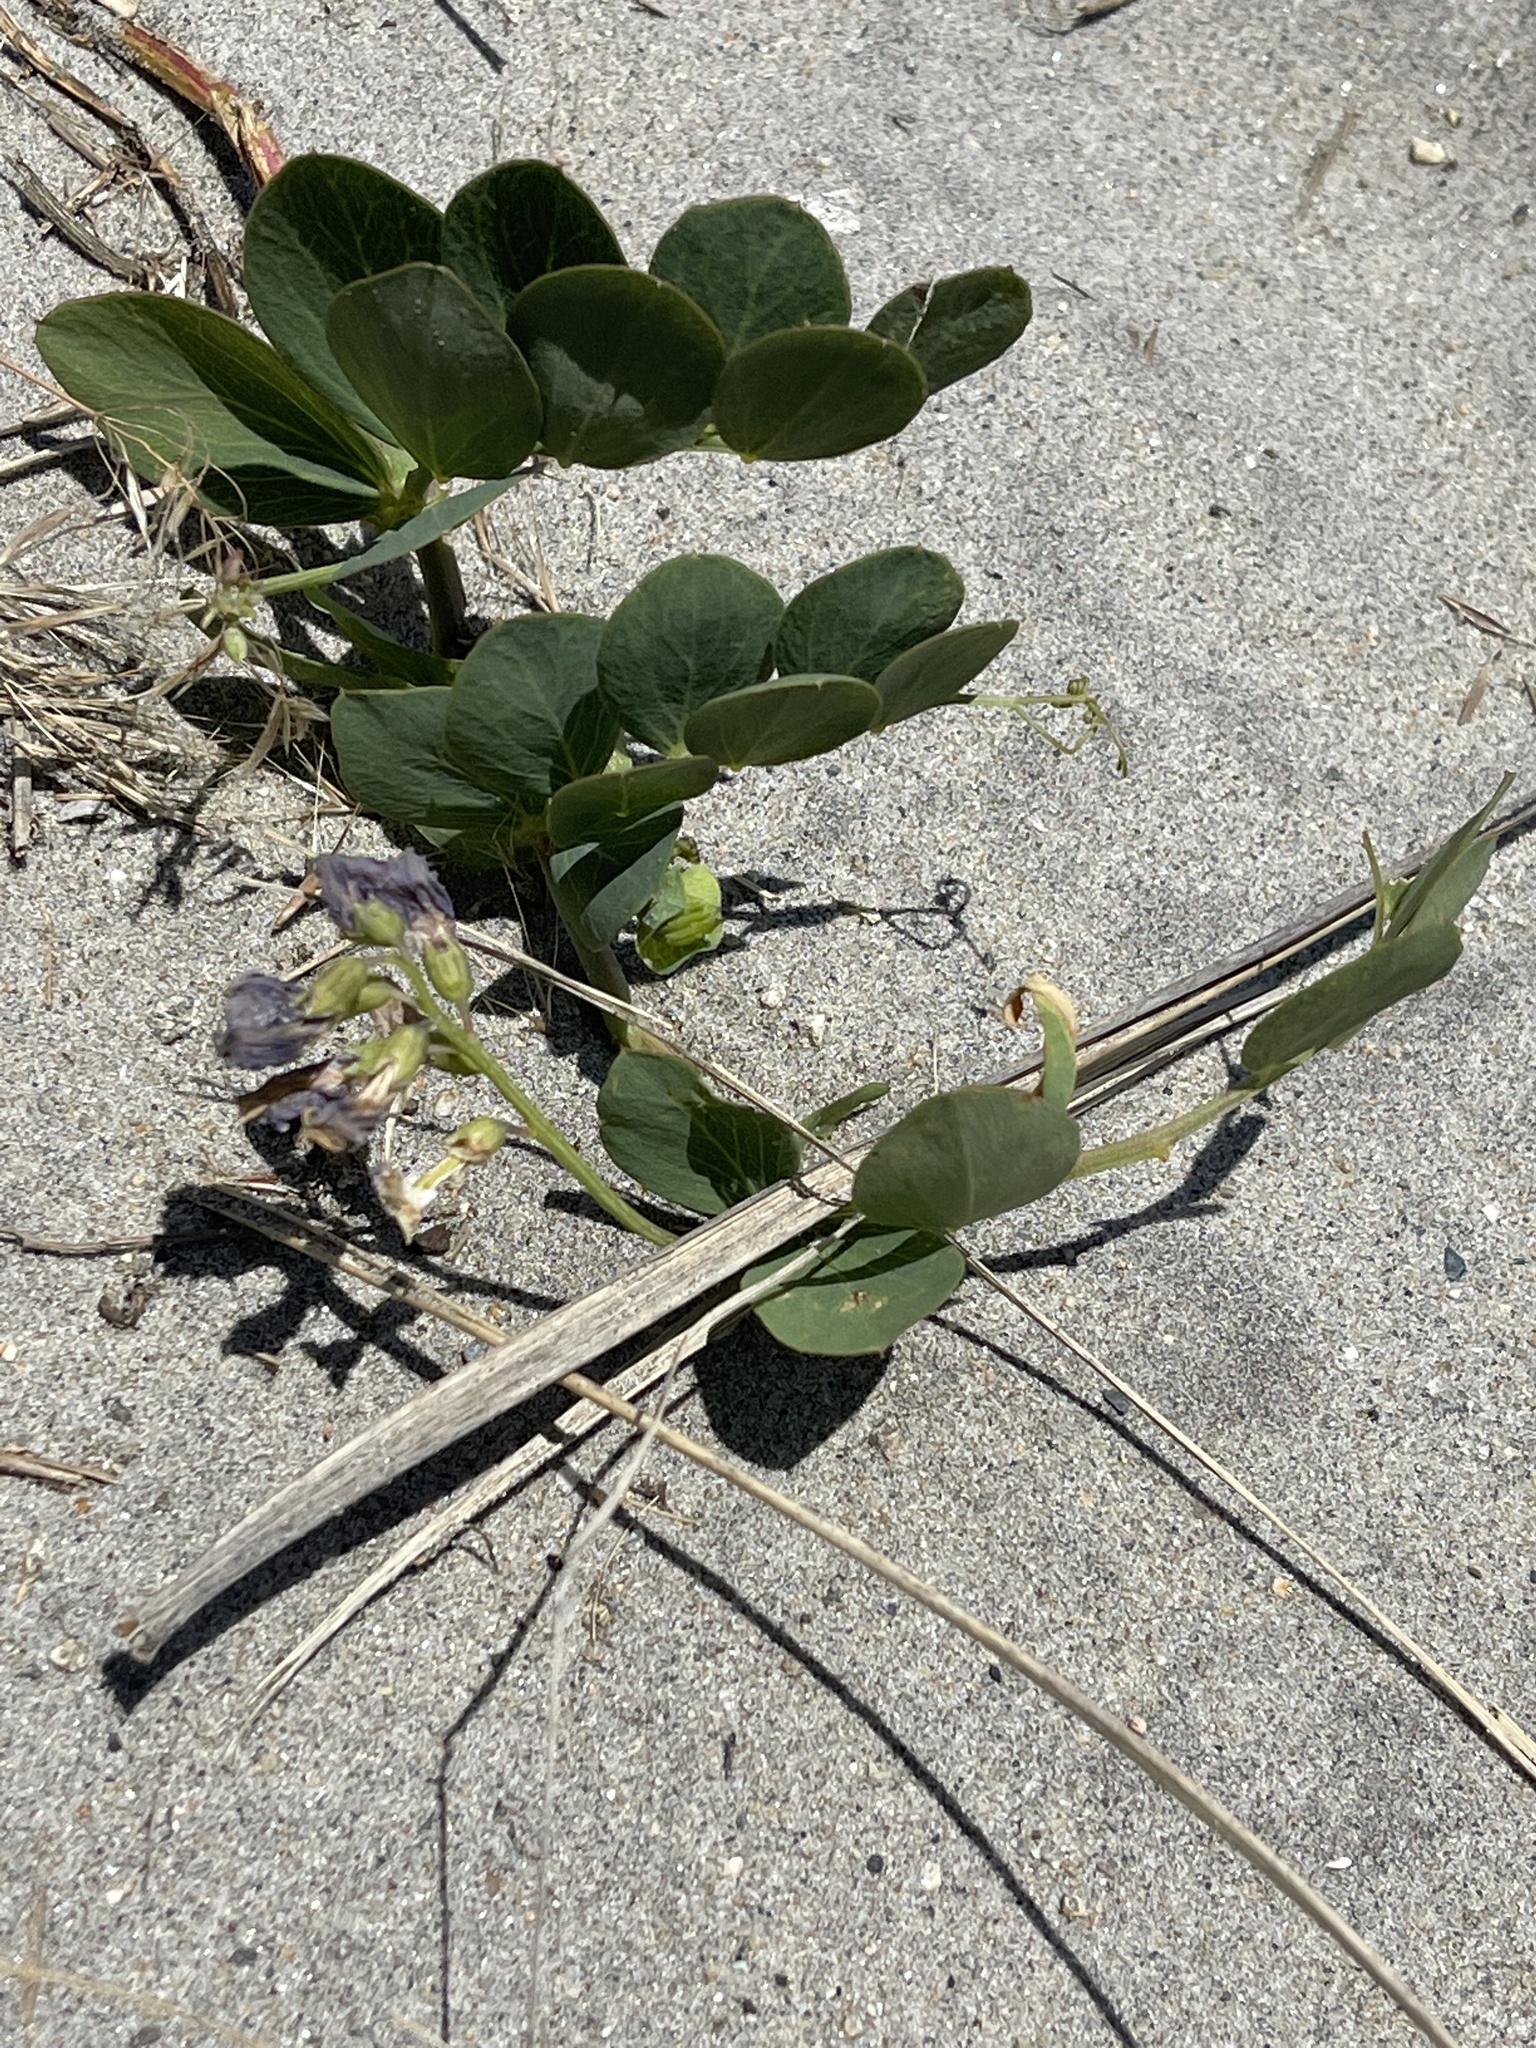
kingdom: Plantae
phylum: Tracheophyta
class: Magnoliopsida
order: Fabales
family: Fabaceae
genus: Lathyrus
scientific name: Lathyrus japonicus
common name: Sea pea
